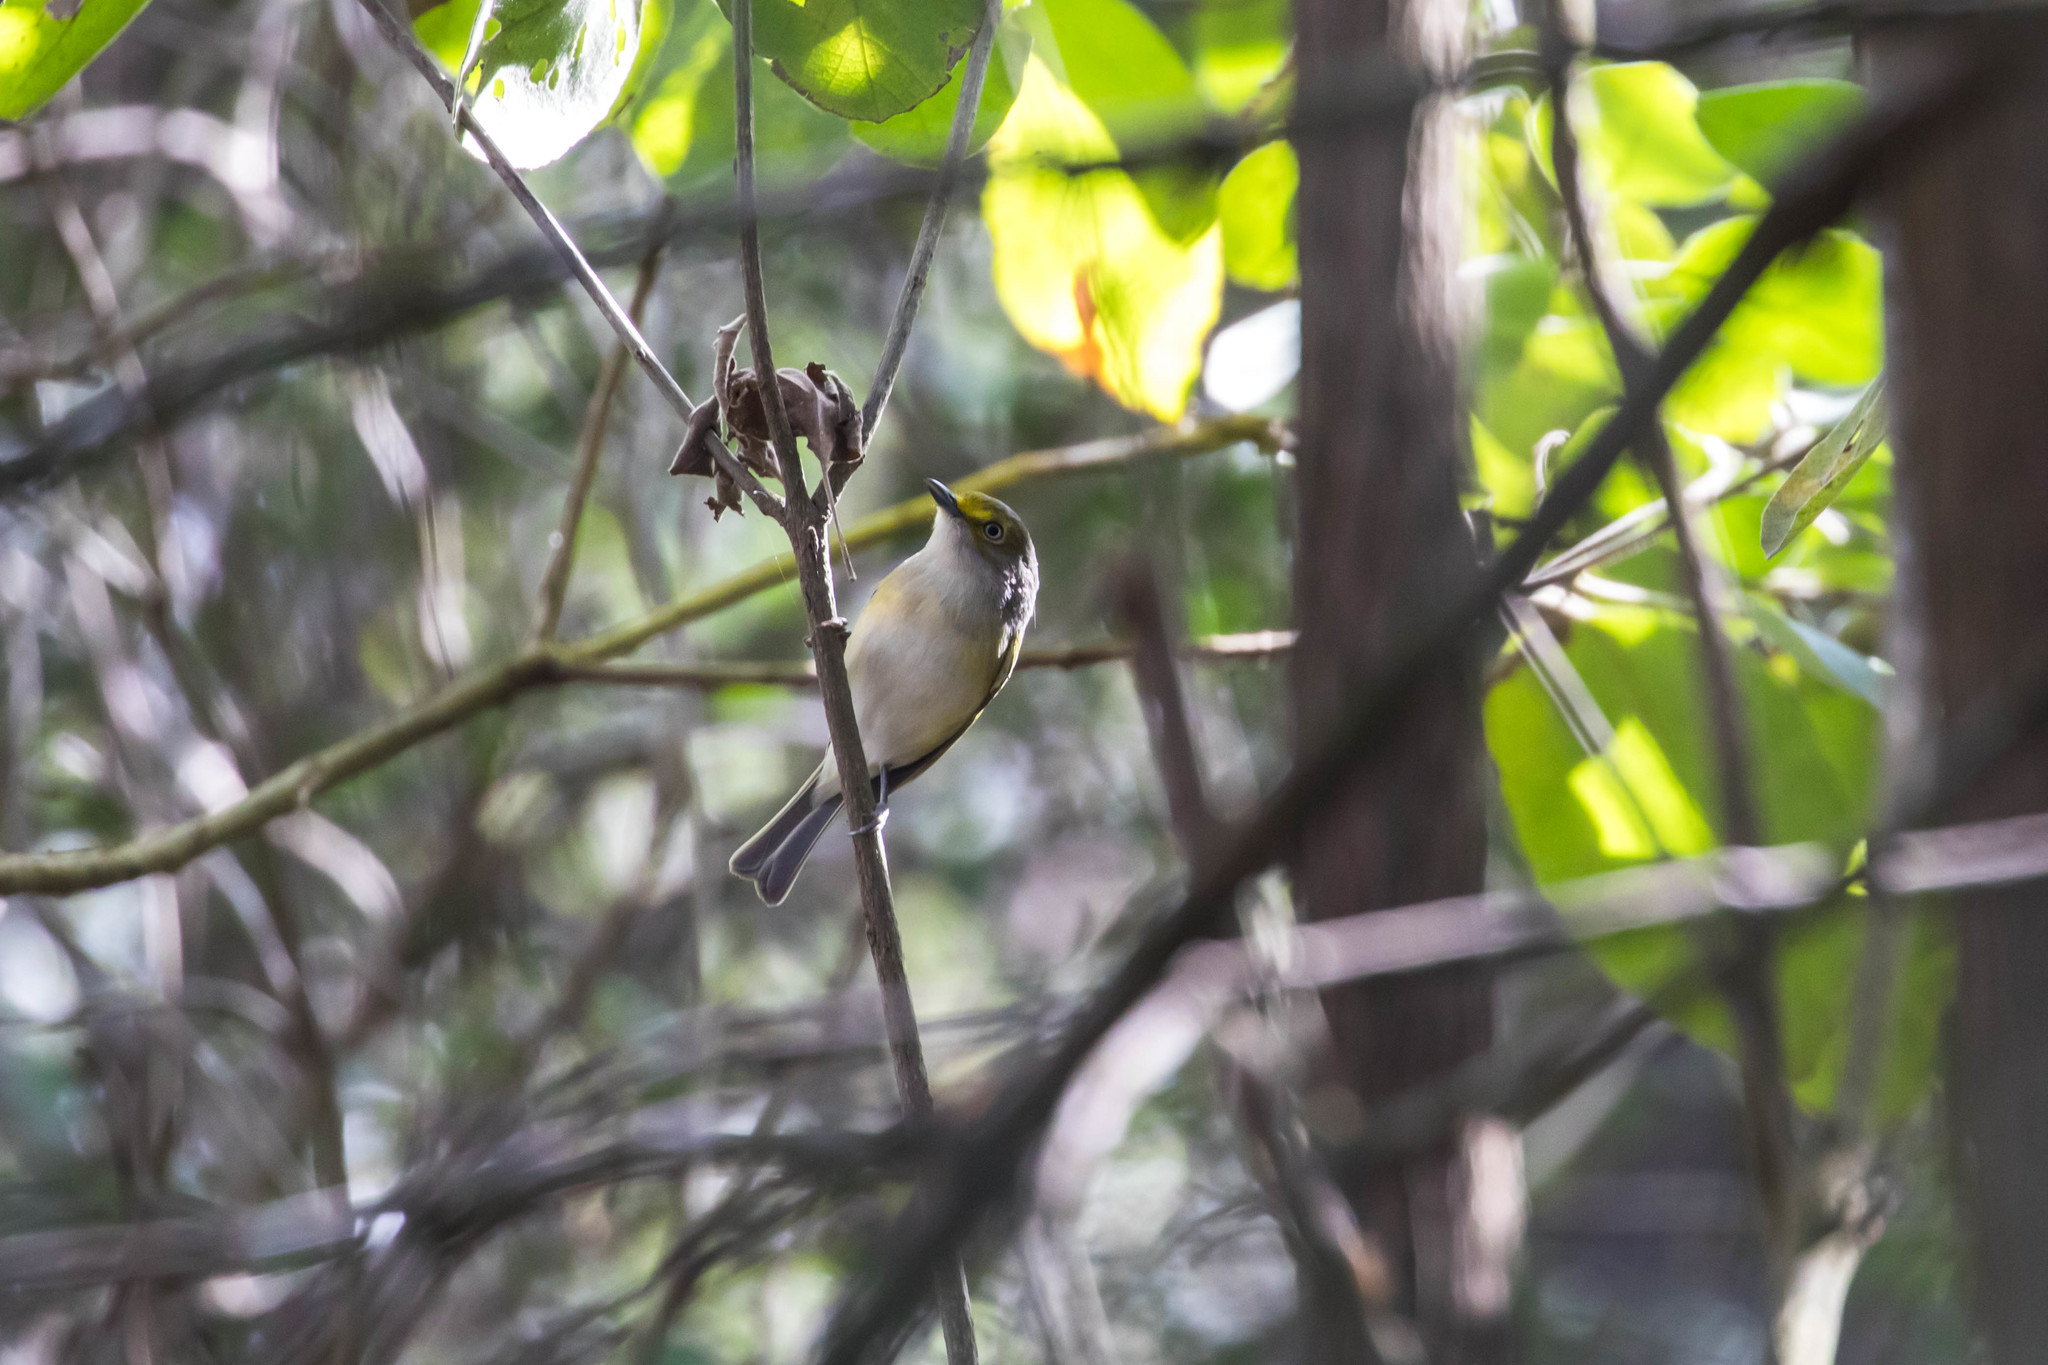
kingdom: Animalia
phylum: Chordata
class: Aves
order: Passeriformes
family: Vireonidae
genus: Vireo
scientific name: Vireo griseus
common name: White-eyed vireo
